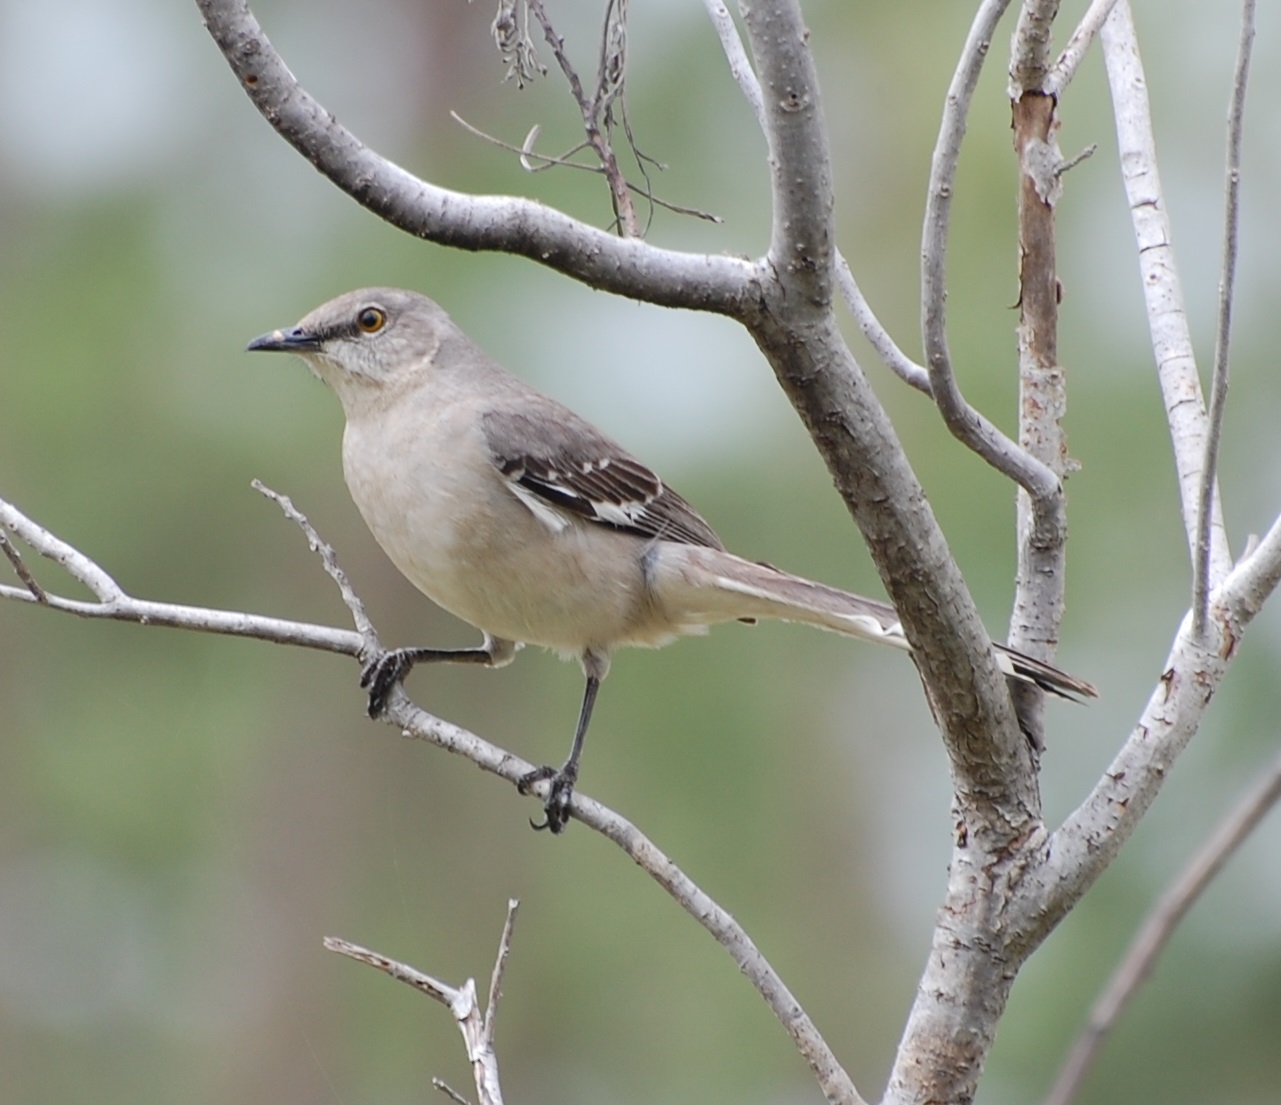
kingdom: Animalia
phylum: Chordata
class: Aves
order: Passeriformes
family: Mimidae
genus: Mimus
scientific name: Mimus polyglottos
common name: Northern mockingbird
